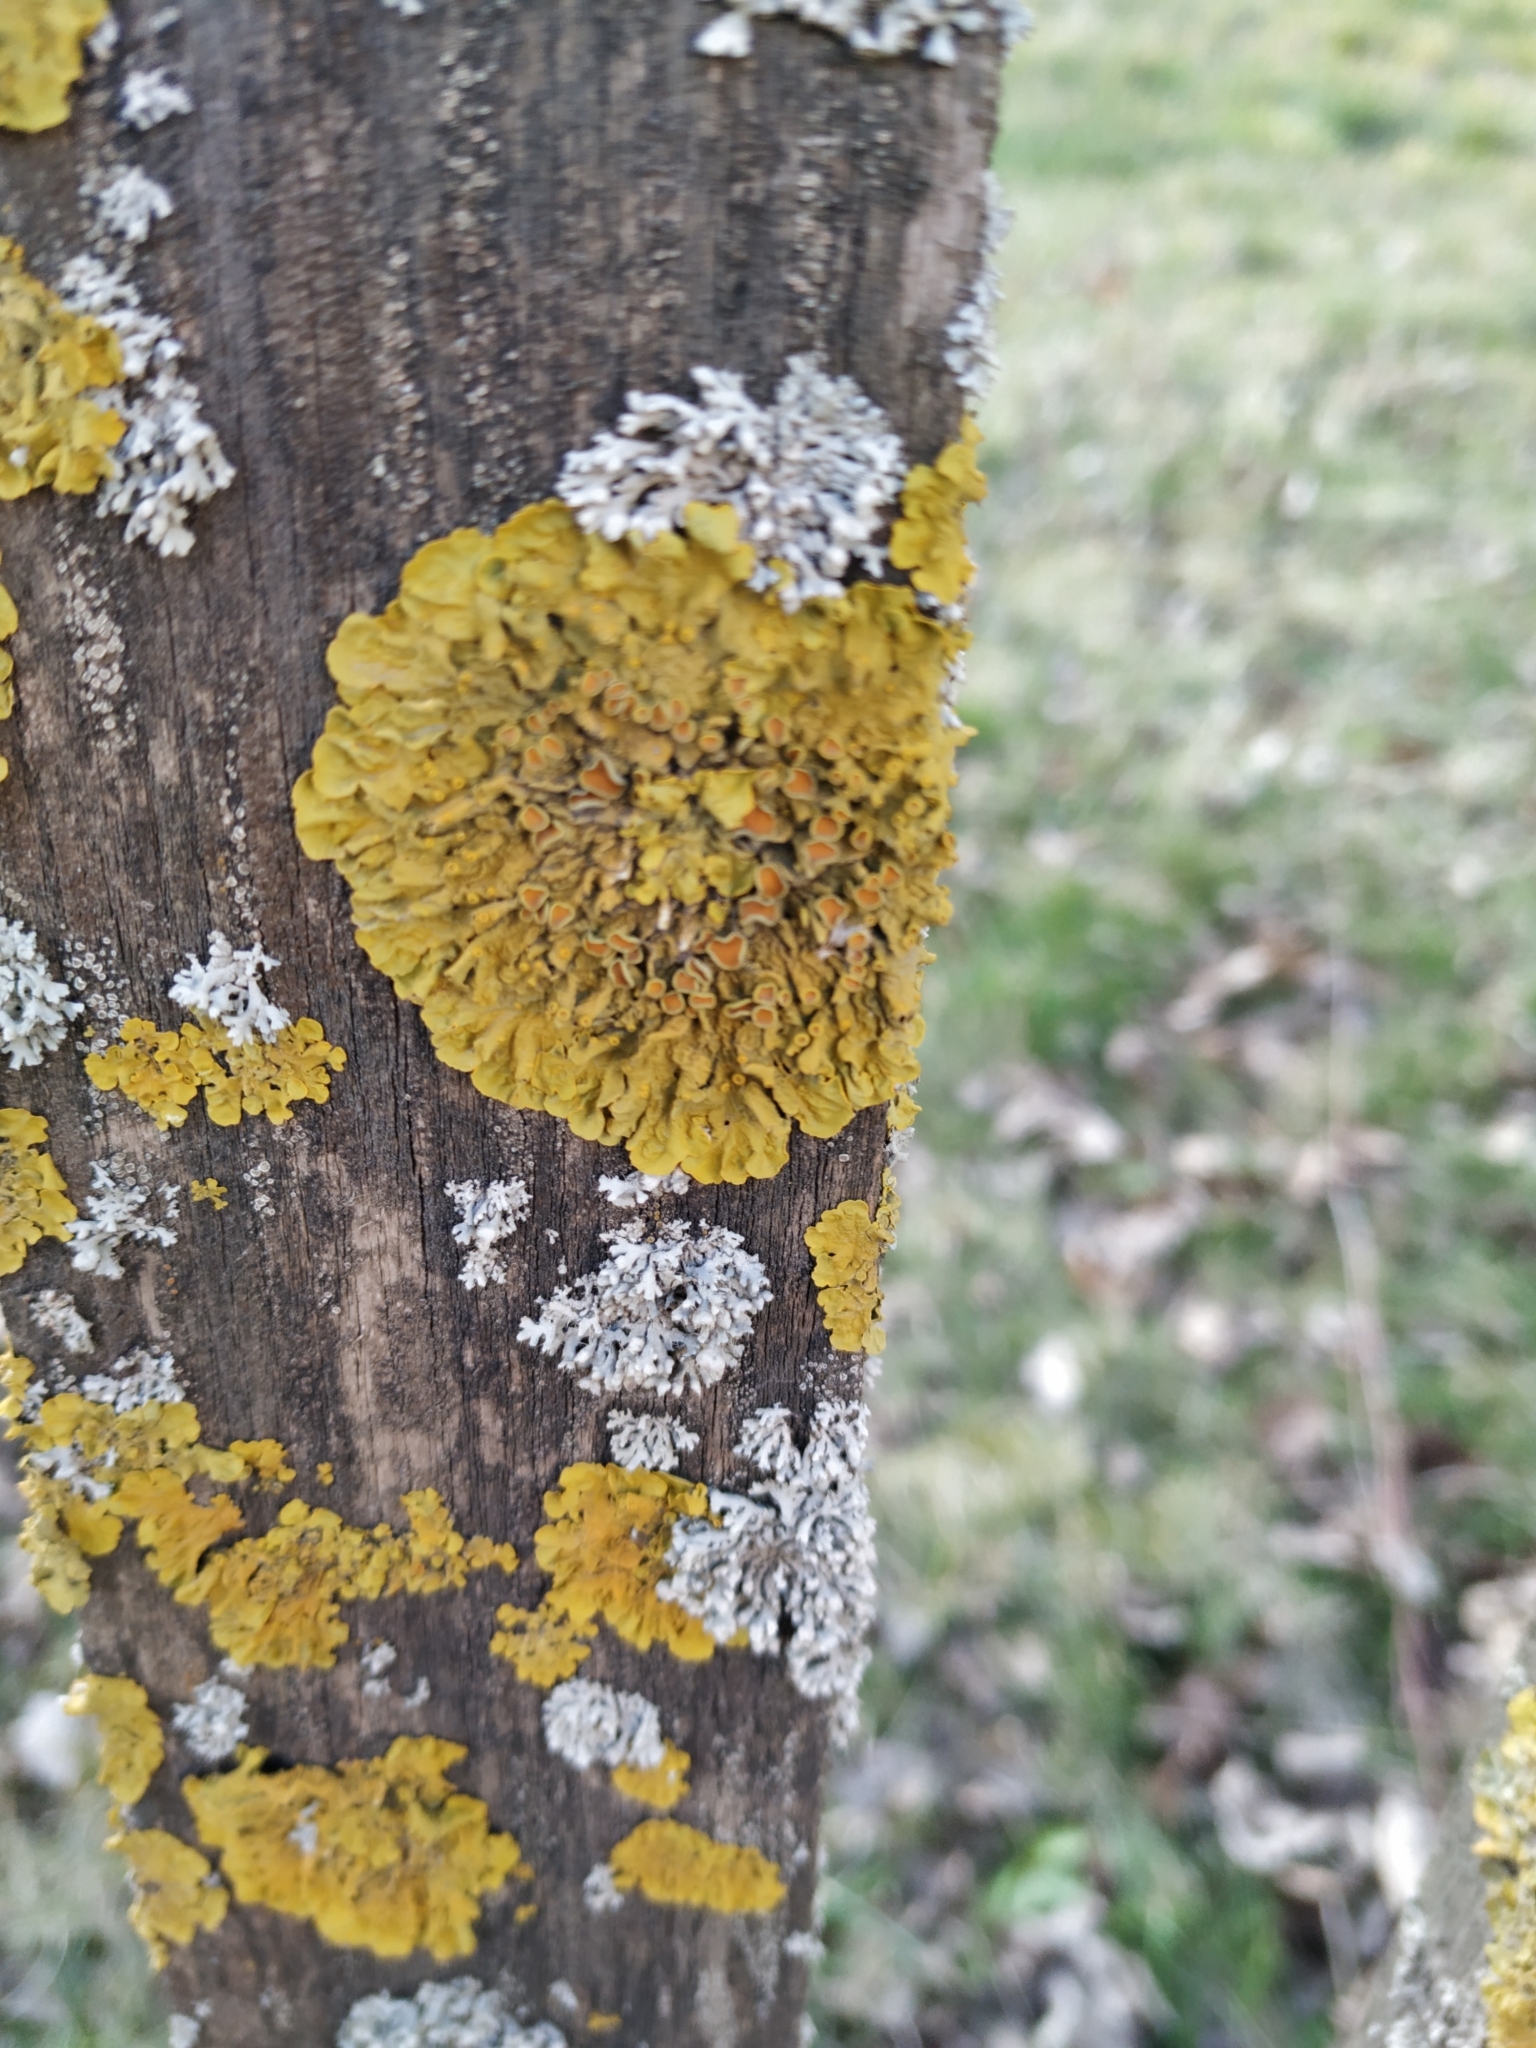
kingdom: Fungi
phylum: Ascomycota
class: Lecanoromycetes
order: Teloschistales
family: Teloschistaceae
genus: Xanthoria
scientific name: Xanthoria parietina
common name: Common orange lichen
